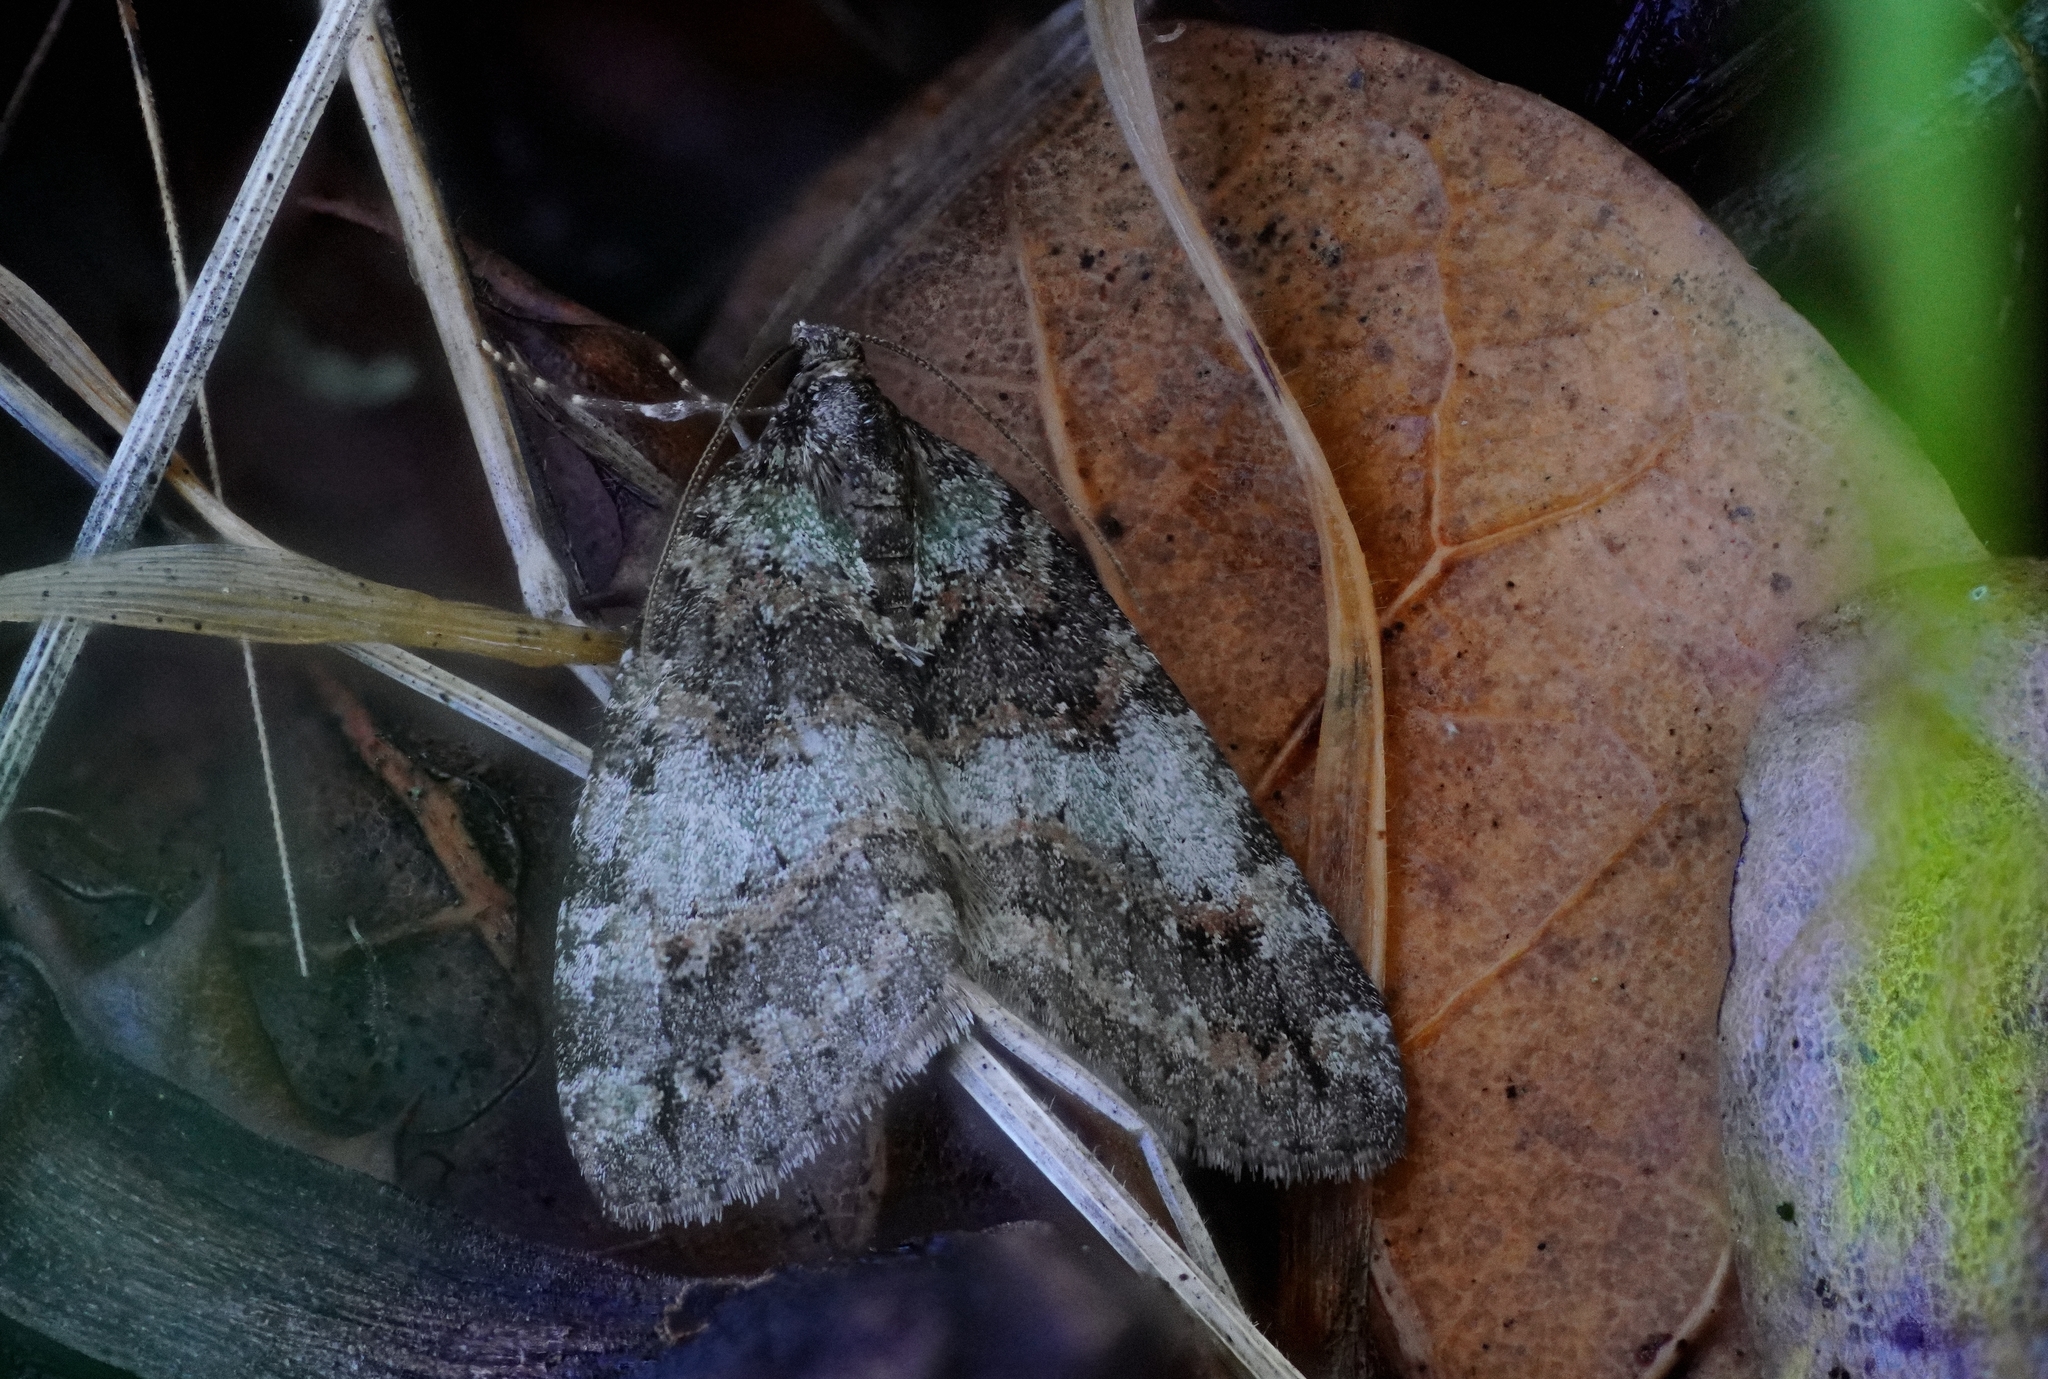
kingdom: Animalia
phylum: Arthropoda
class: Insecta
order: Lepidoptera
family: Geometridae
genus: Hydriomena
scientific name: Hydriomena nubilofasciata
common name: Oak winter highflier moth
